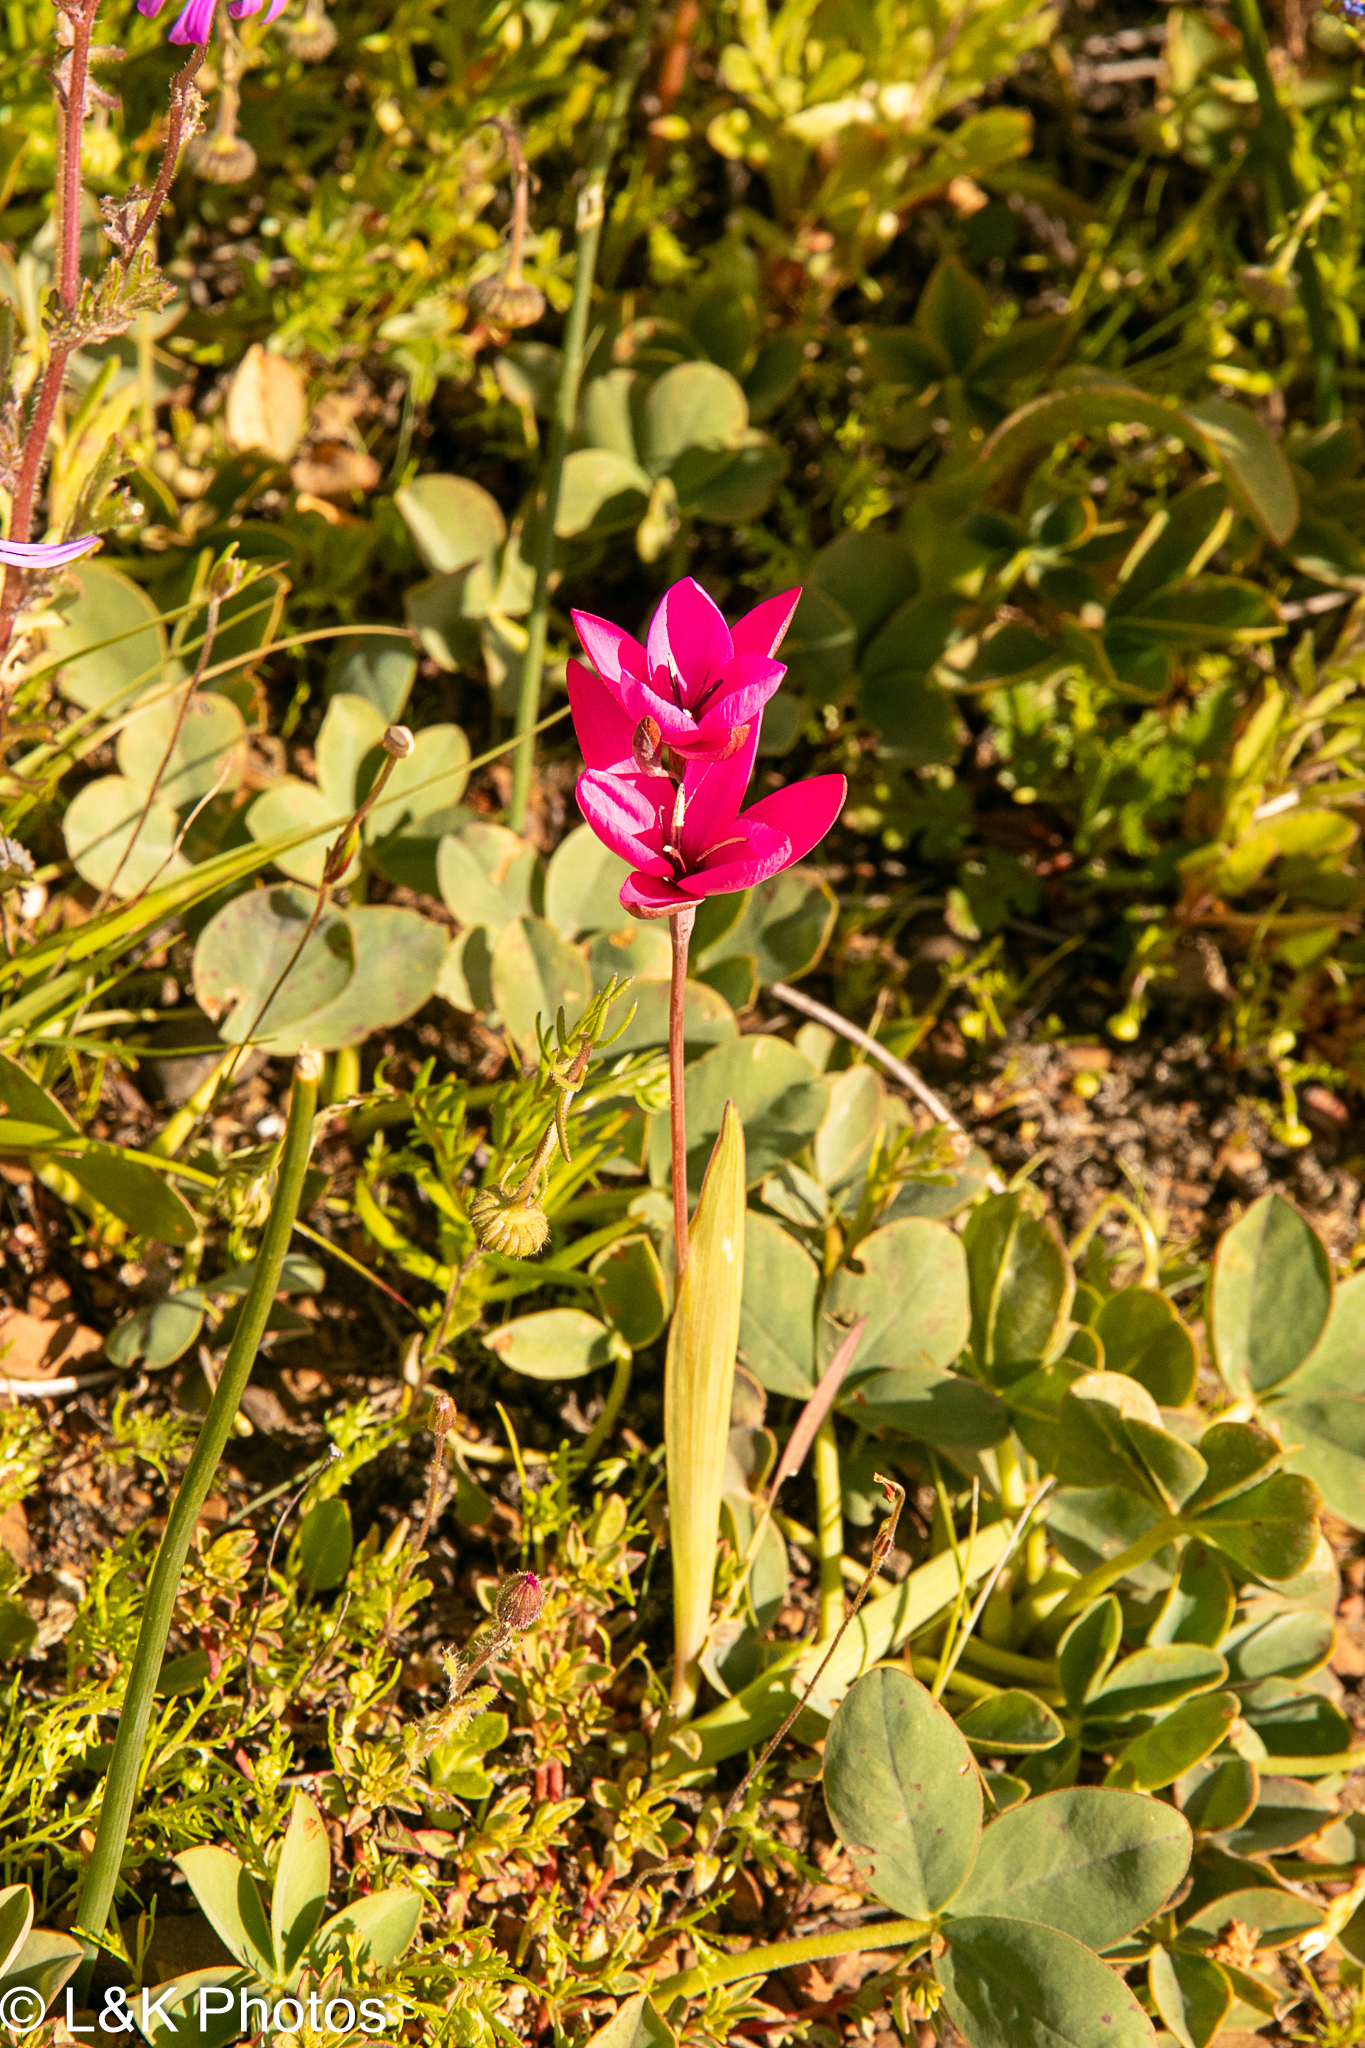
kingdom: Plantae
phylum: Tracheophyta
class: Liliopsida
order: Asparagales
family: Iridaceae
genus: Hesperantha
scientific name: Hesperantha pauciflora
